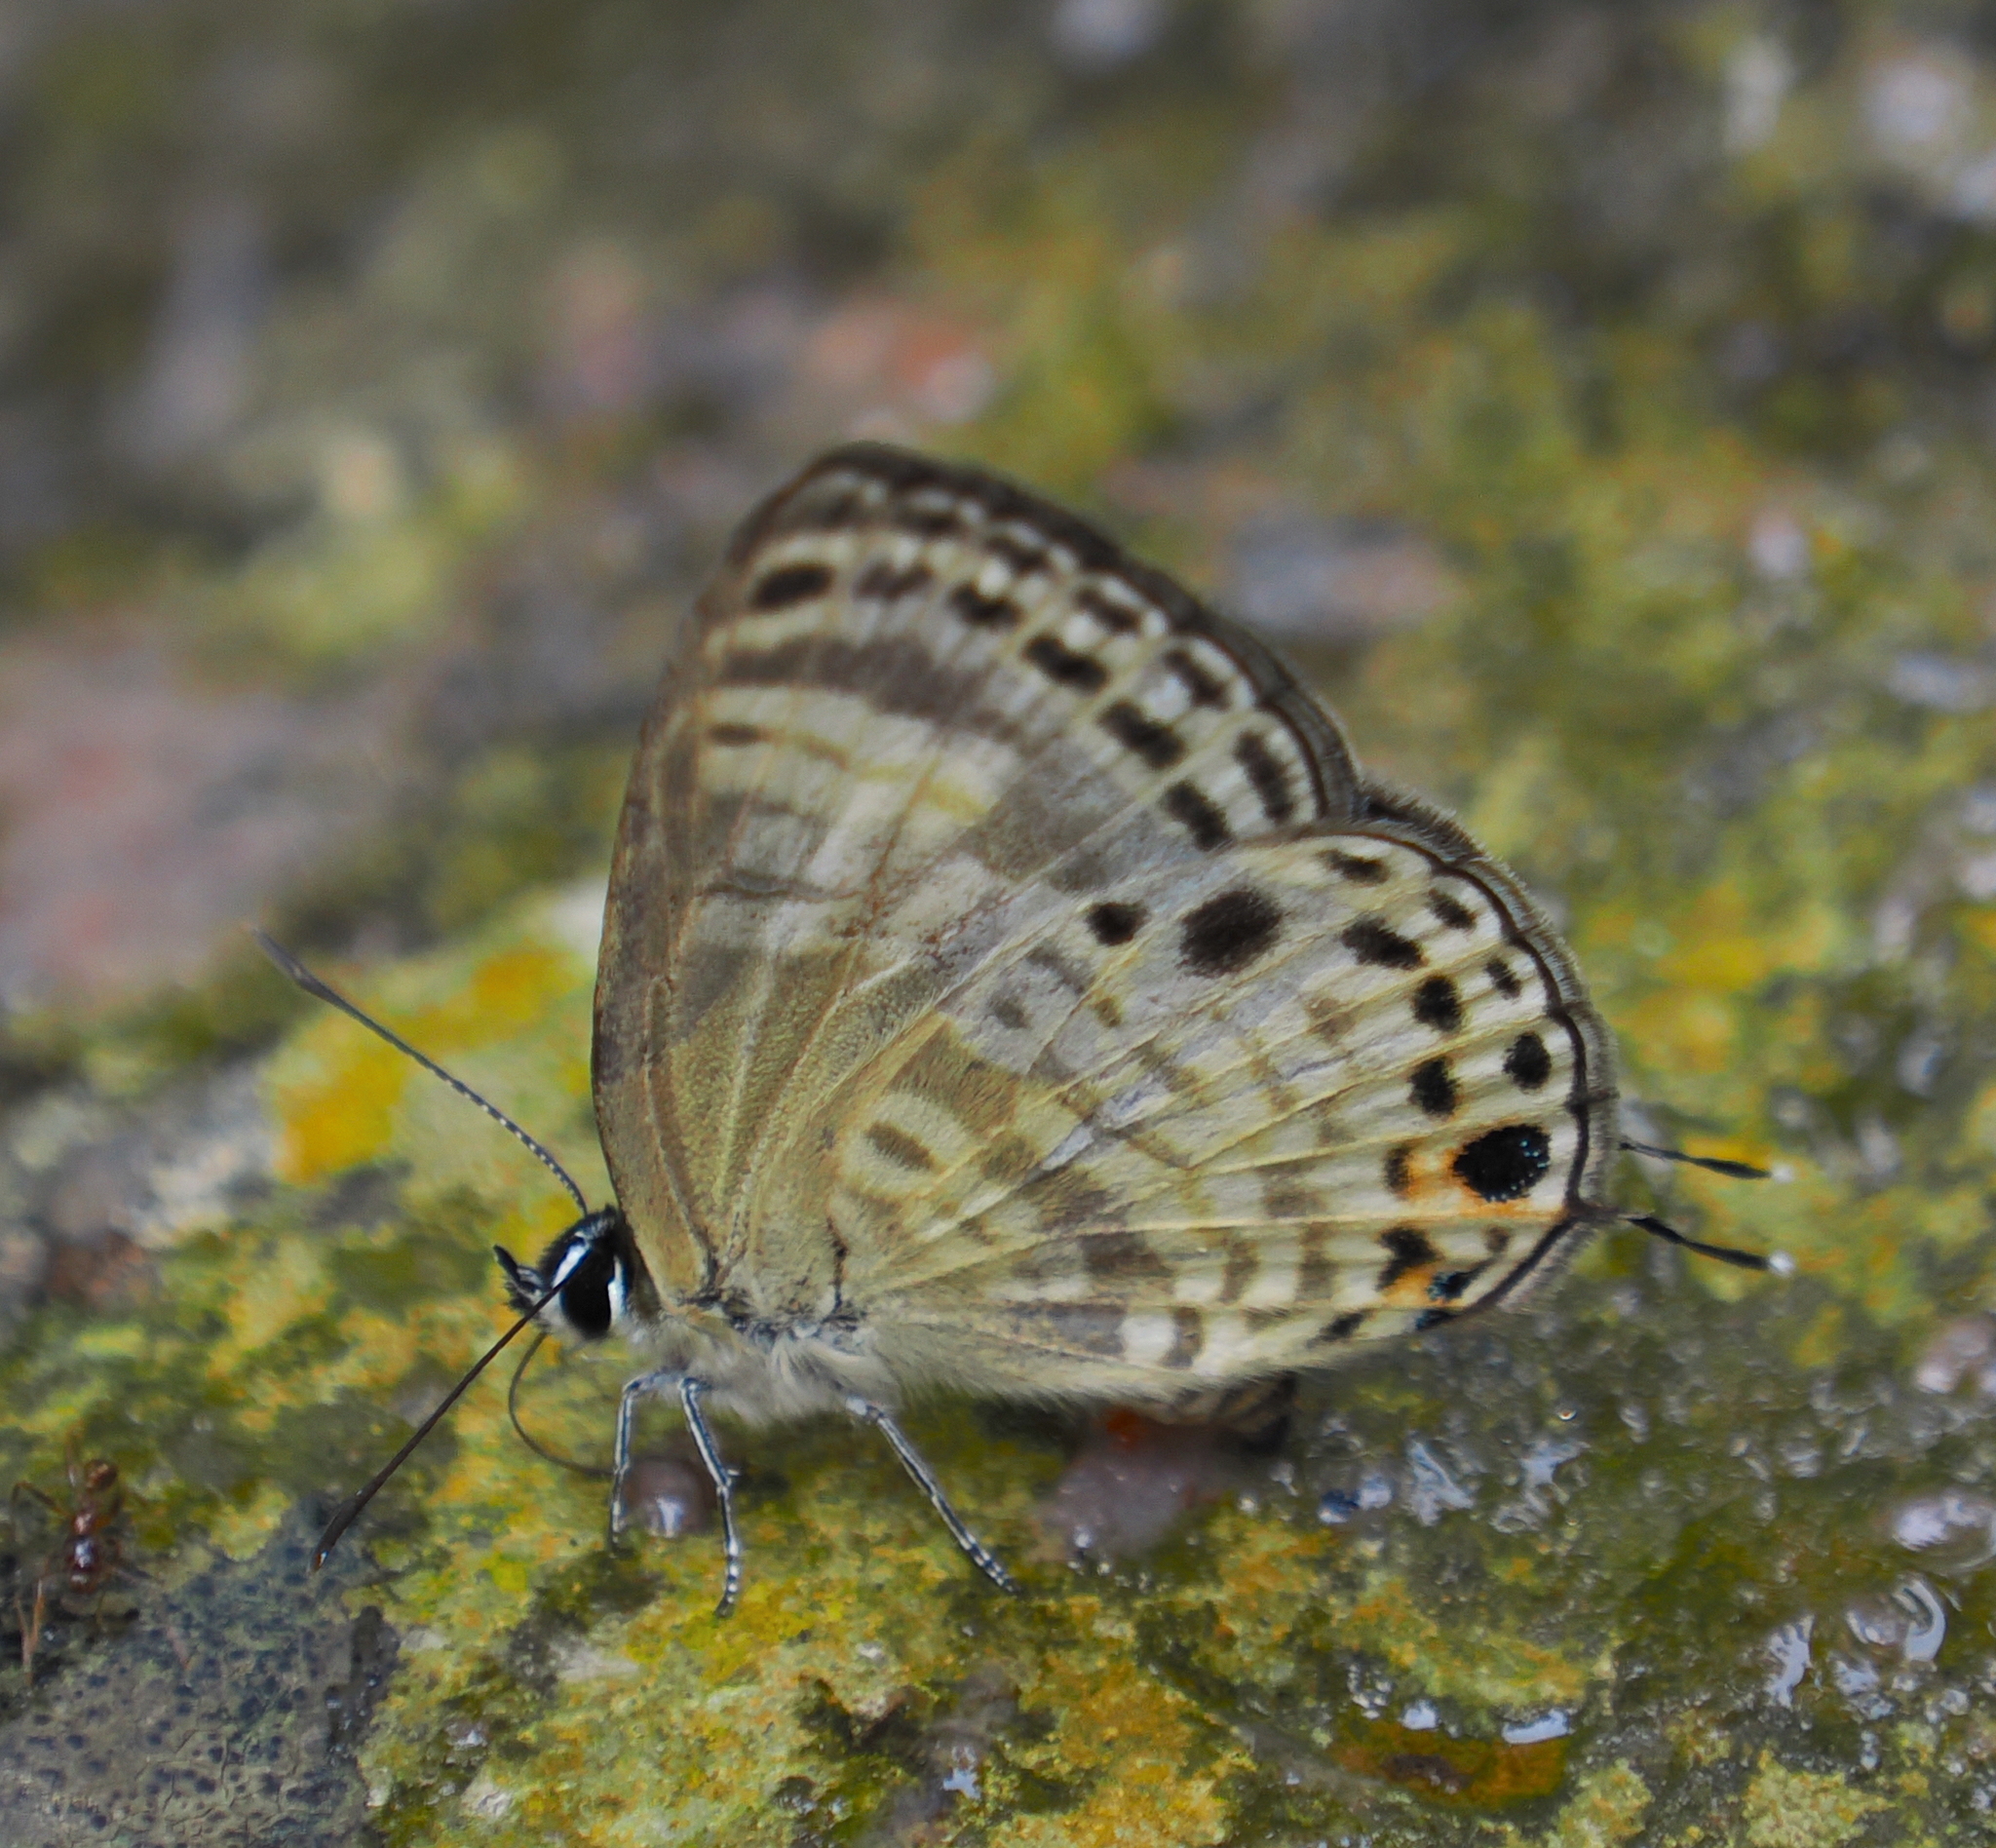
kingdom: Animalia
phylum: Arthropoda
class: Insecta
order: Lepidoptera
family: Lycaenidae
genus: Nacaduba
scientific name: Nacaduba angusta
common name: White four-line blue
